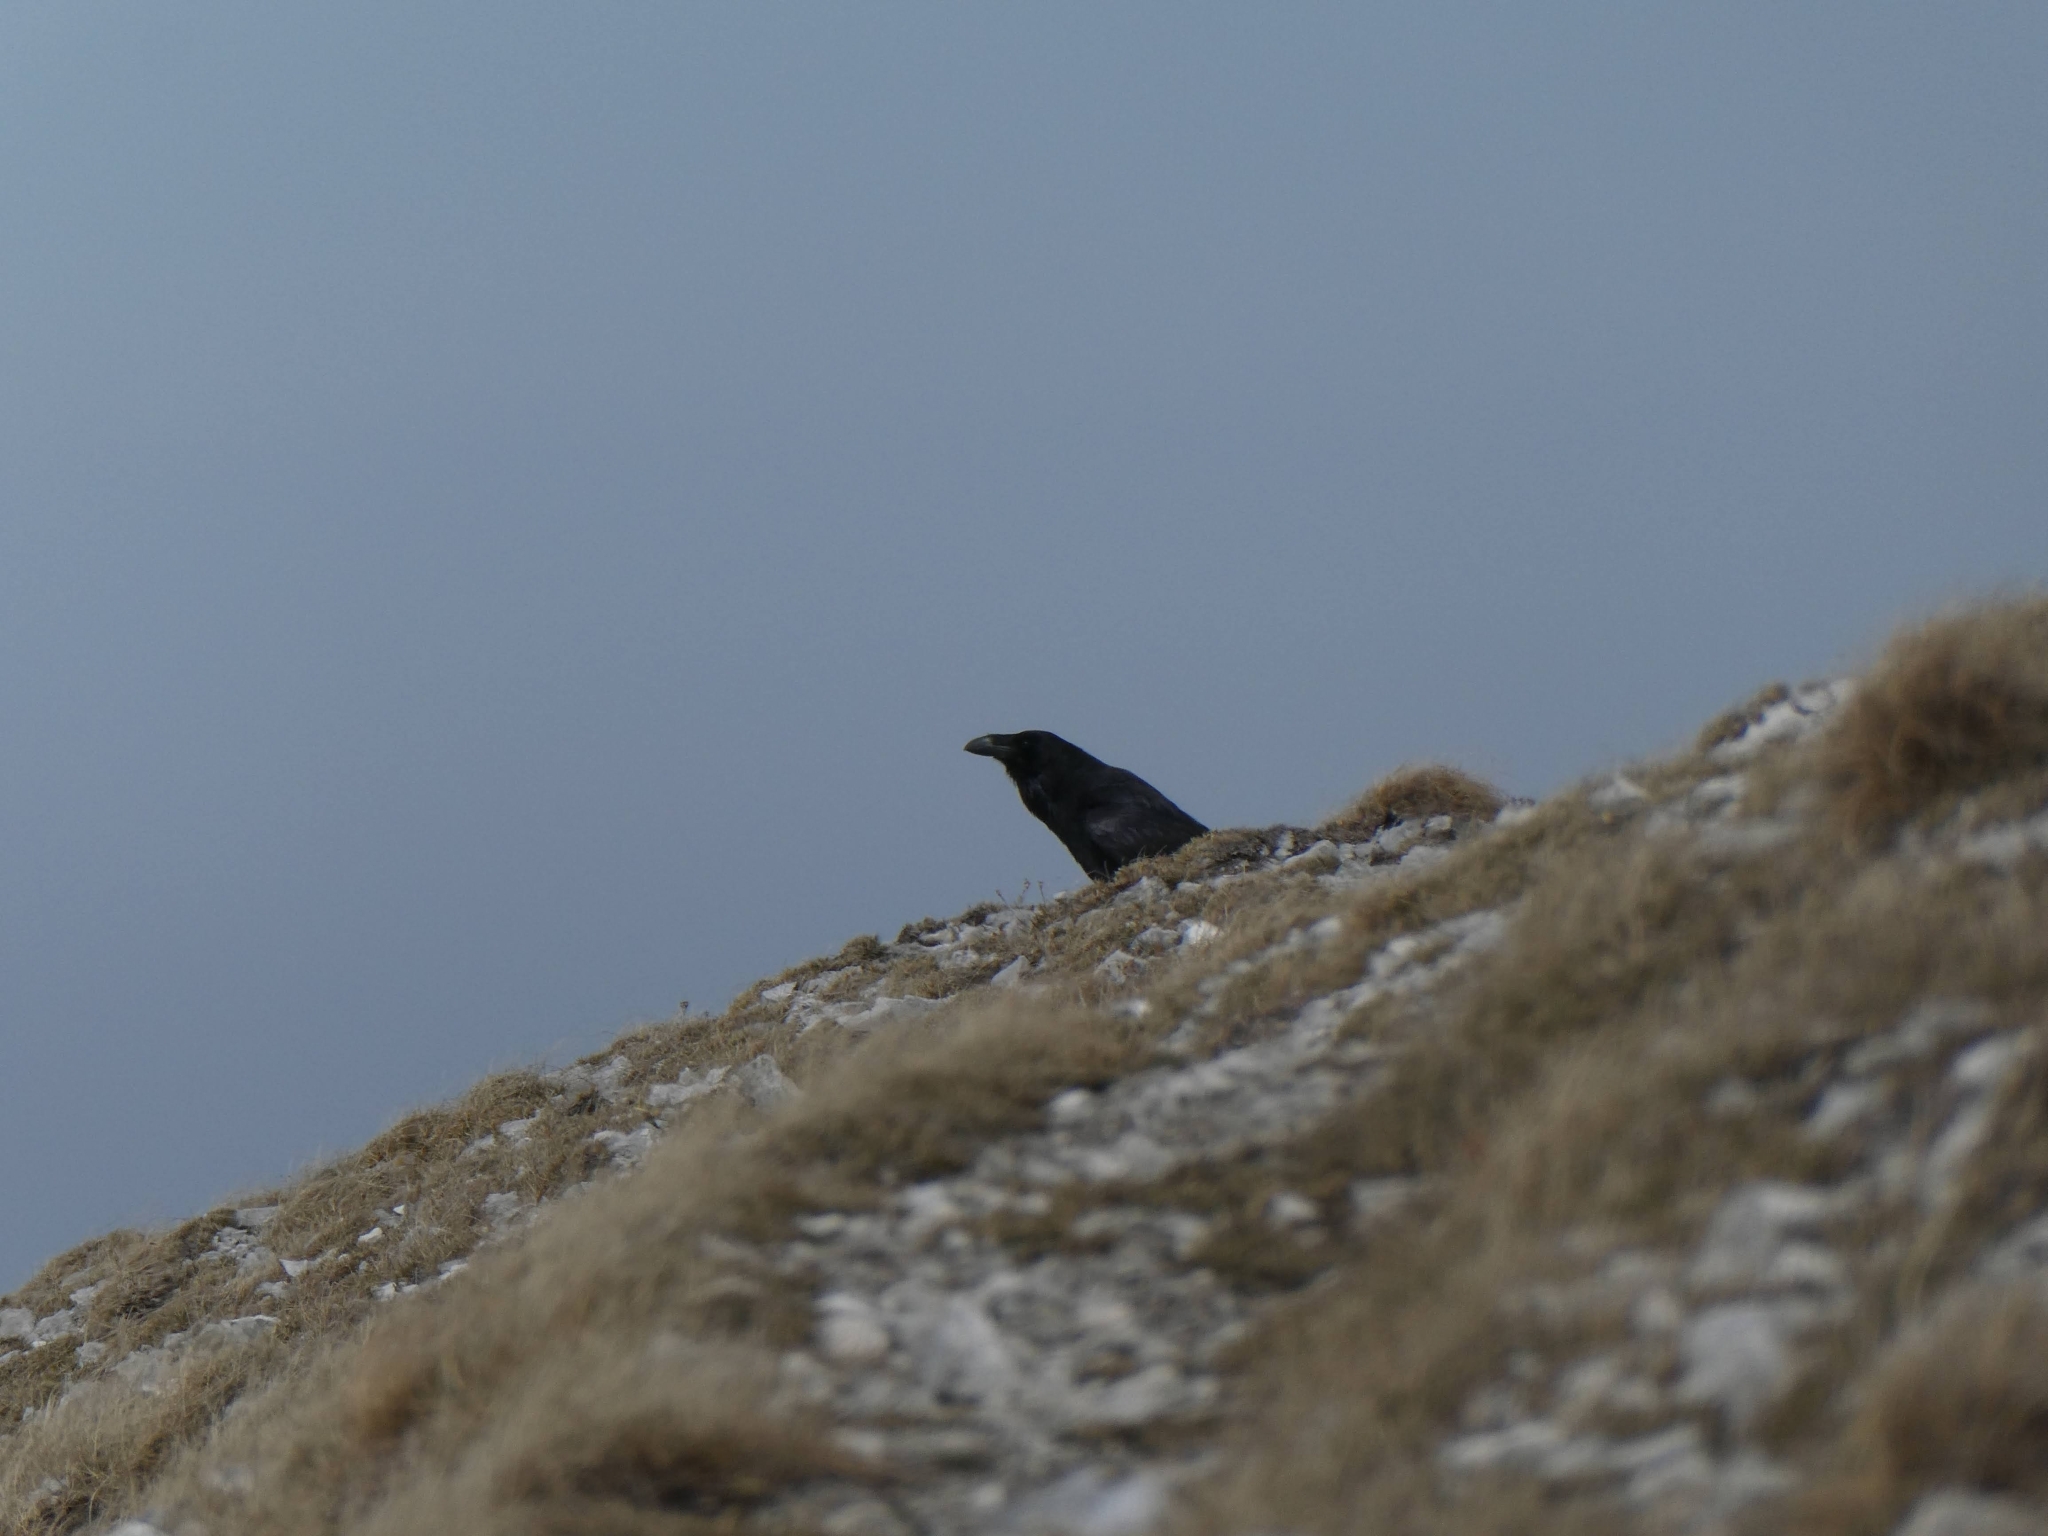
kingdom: Animalia
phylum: Chordata
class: Aves
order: Passeriformes
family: Corvidae
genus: Corvus
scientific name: Corvus corax
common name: Common raven
